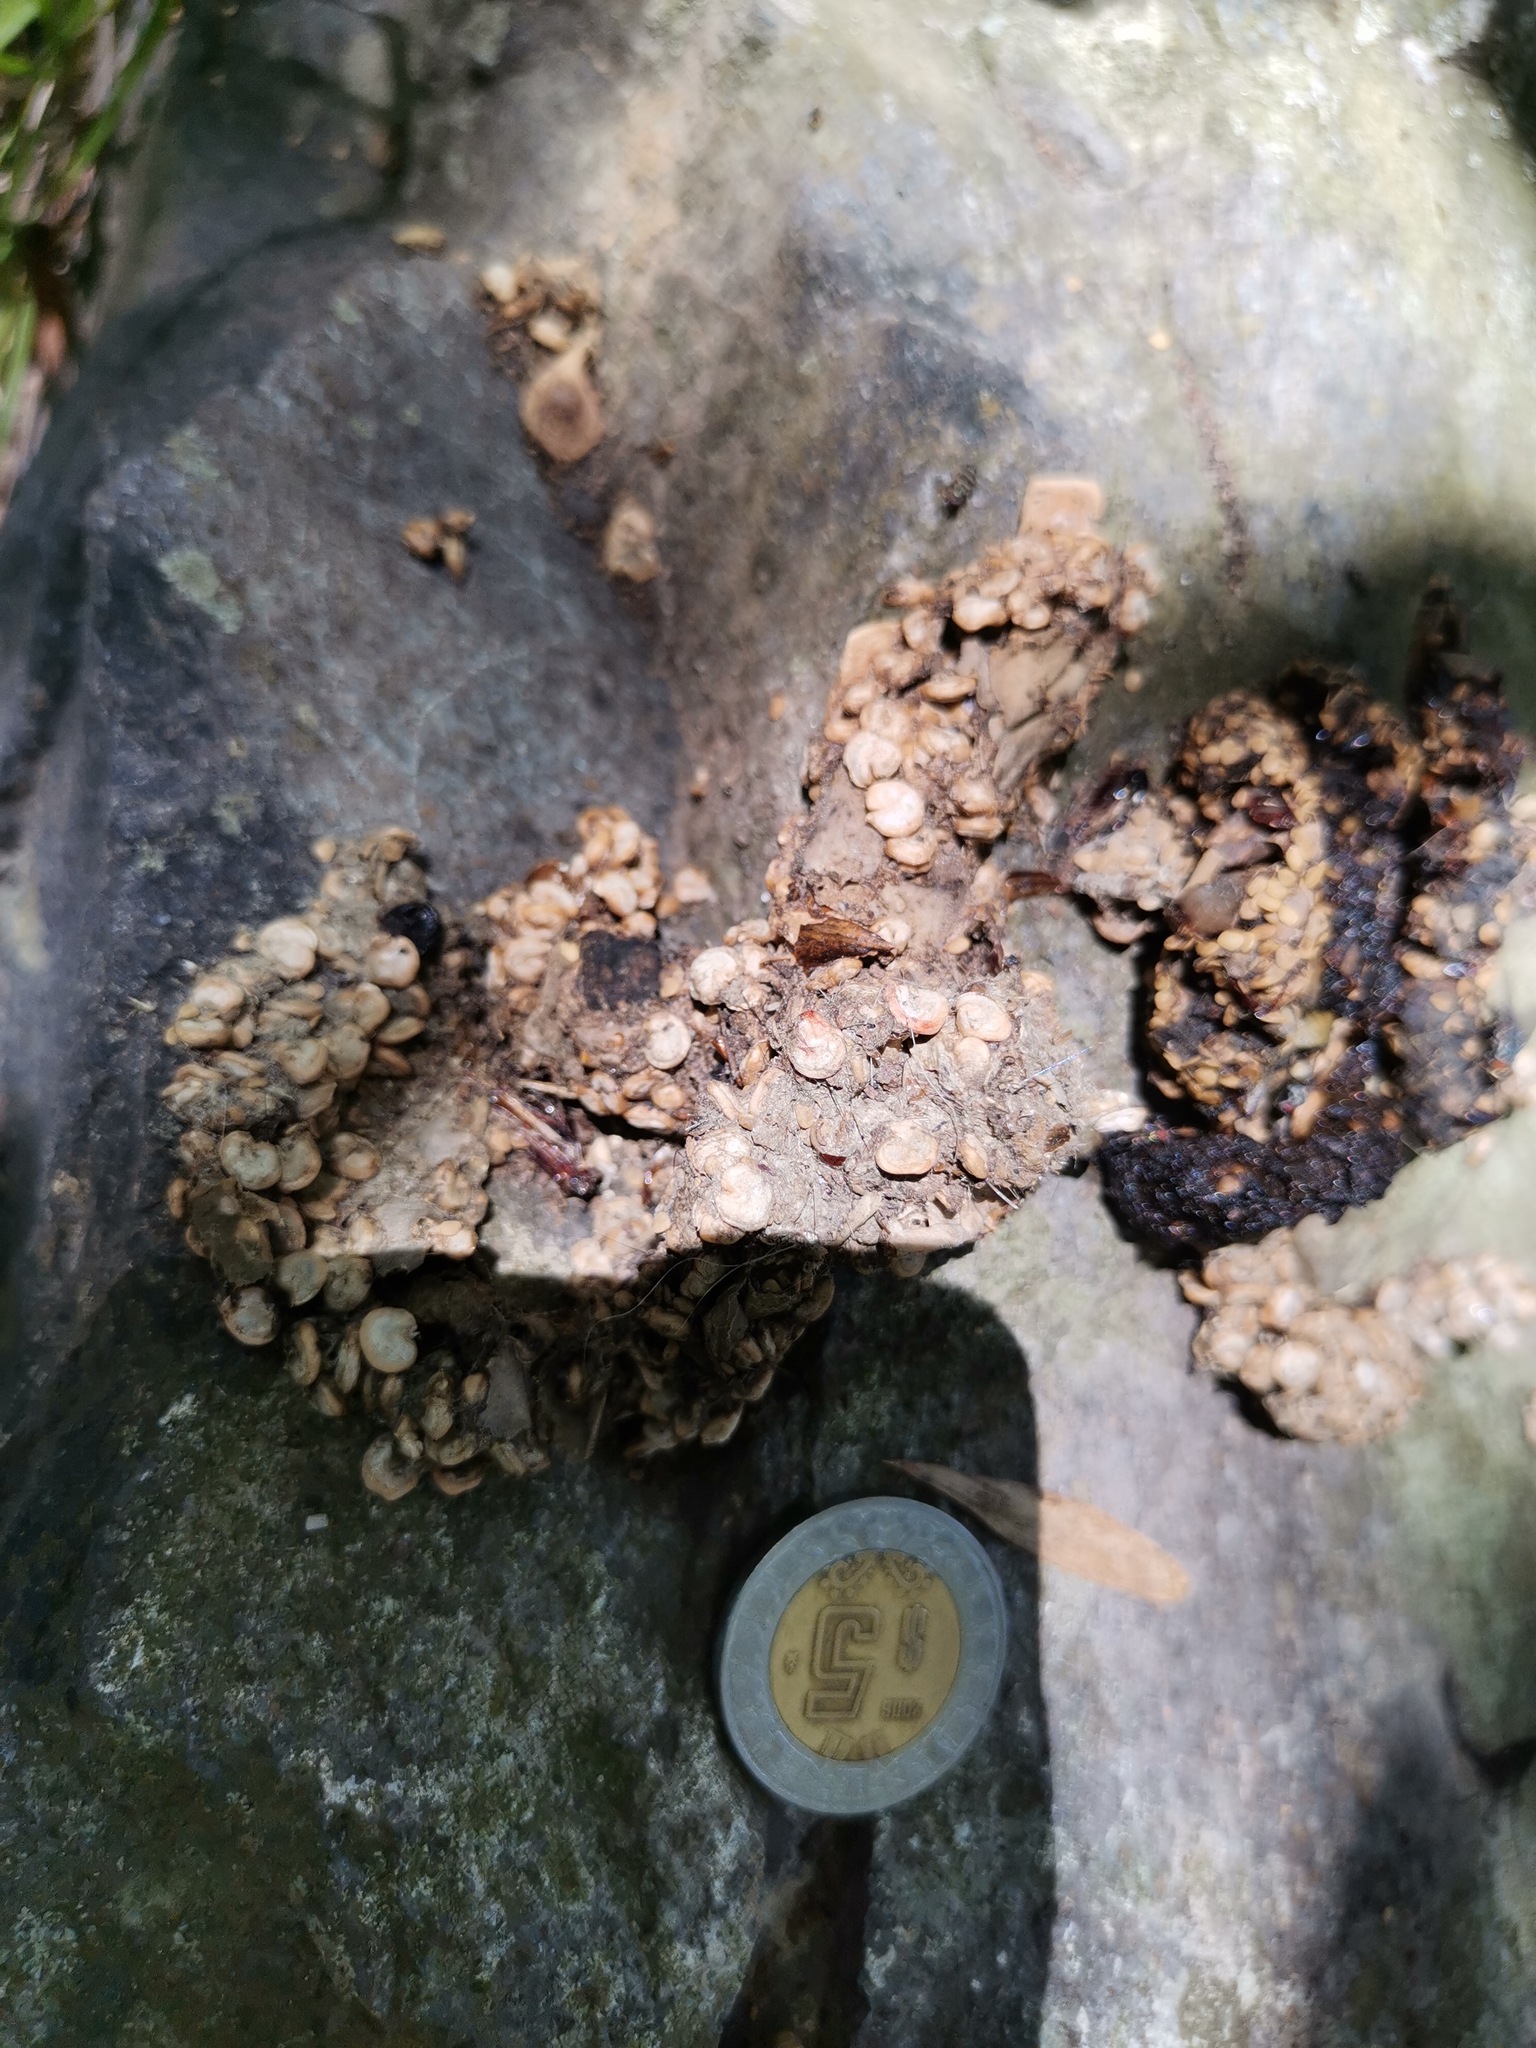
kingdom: Animalia
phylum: Chordata
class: Mammalia
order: Carnivora
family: Procyonidae
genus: Bassariscus
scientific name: Bassariscus astutus
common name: Ringtail
